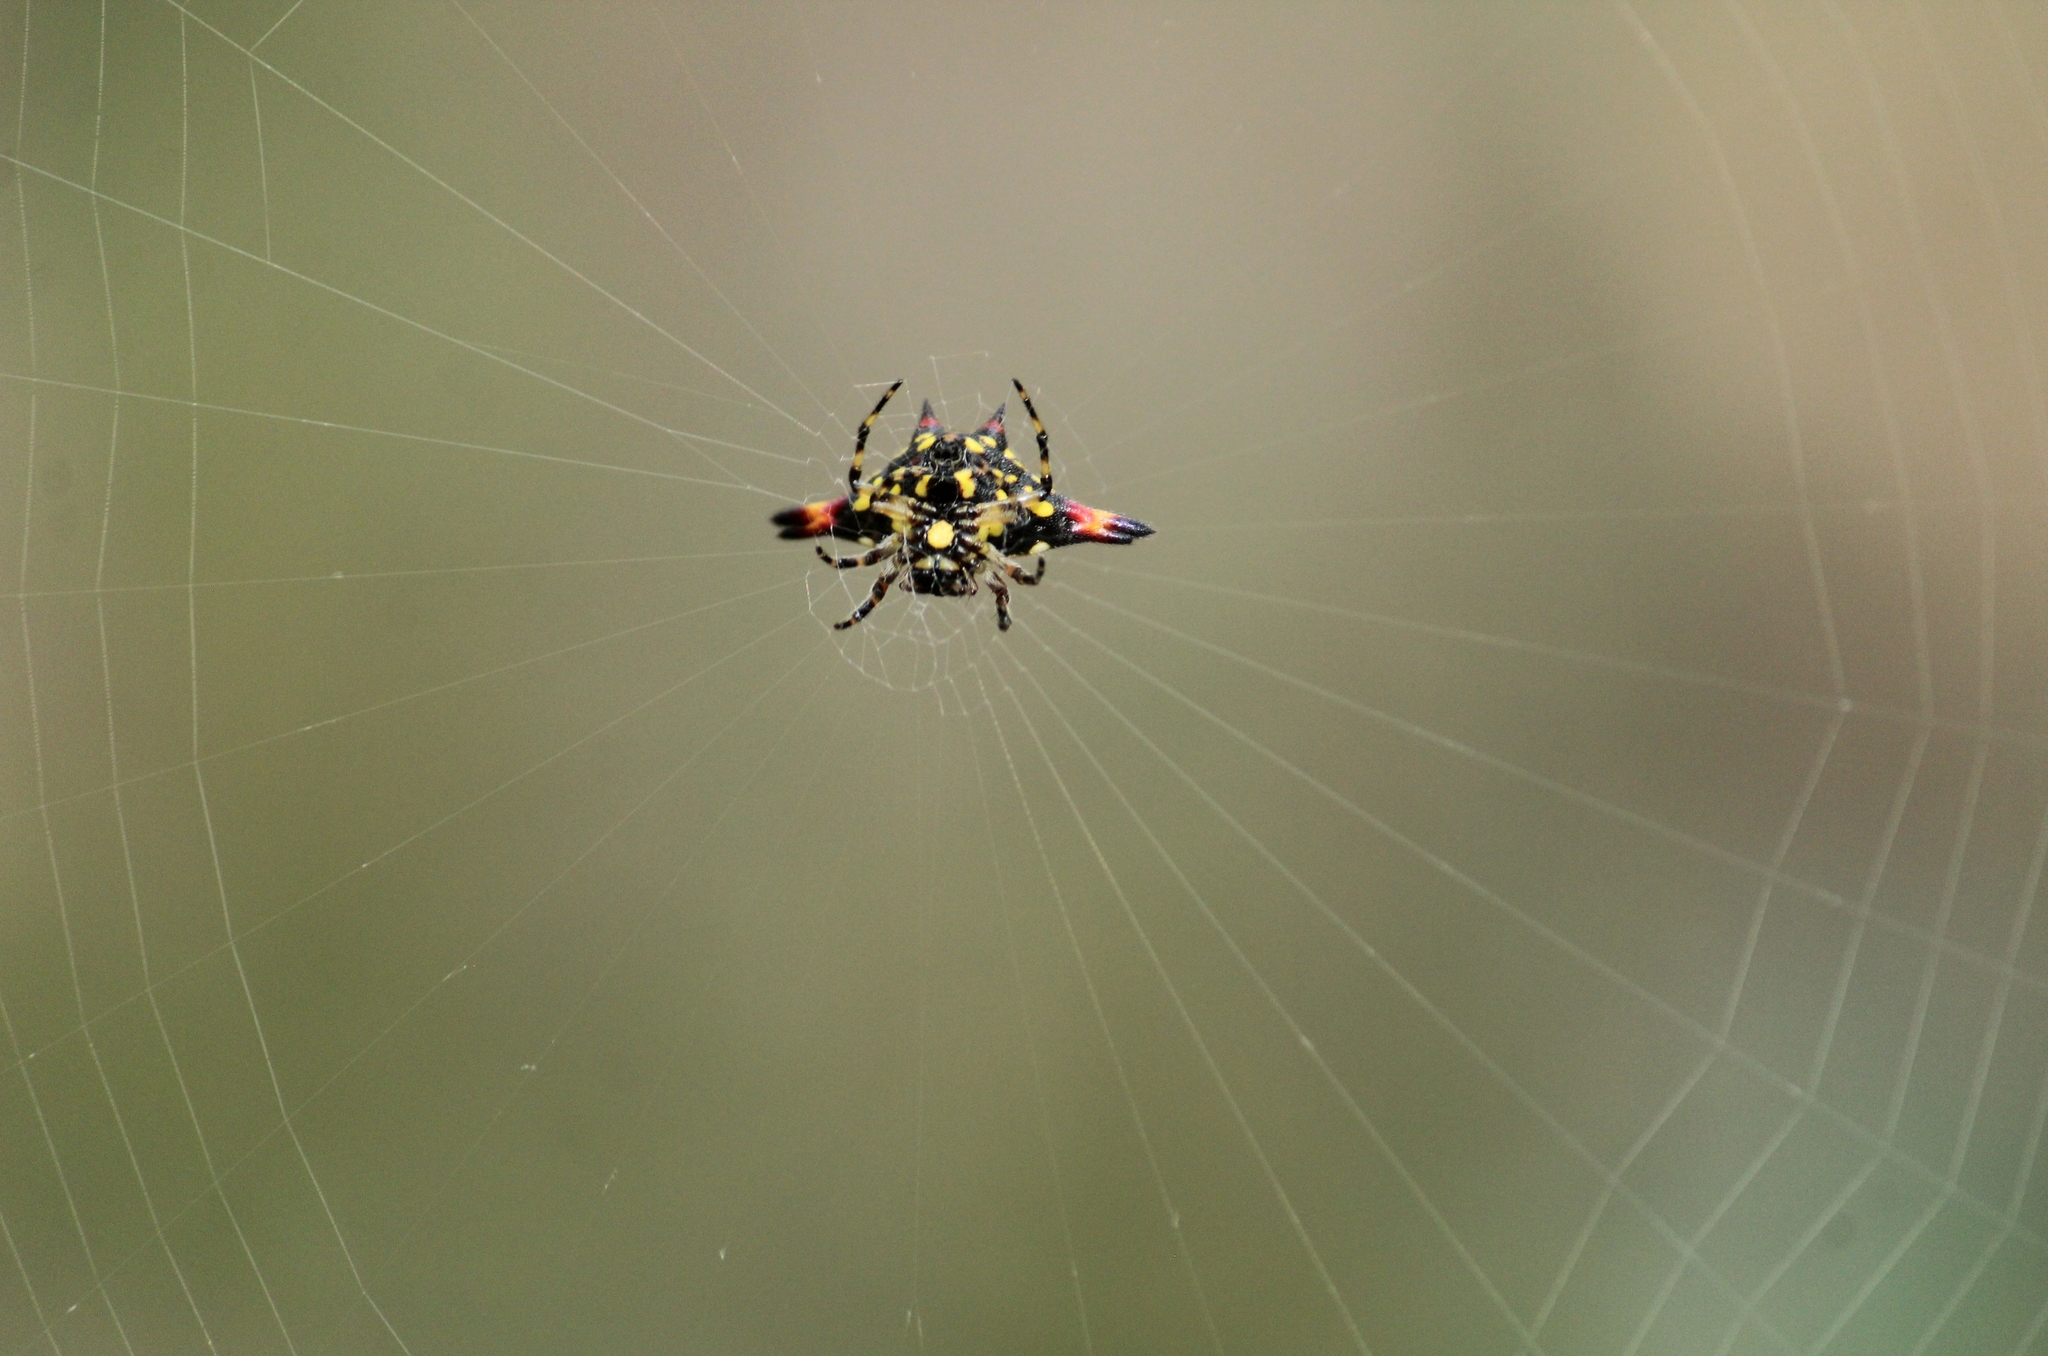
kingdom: Animalia
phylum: Arthropoda
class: Arachnida
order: Araneae
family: Araneidae
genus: Gasteracantha
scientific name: Gasteracantha geminata
